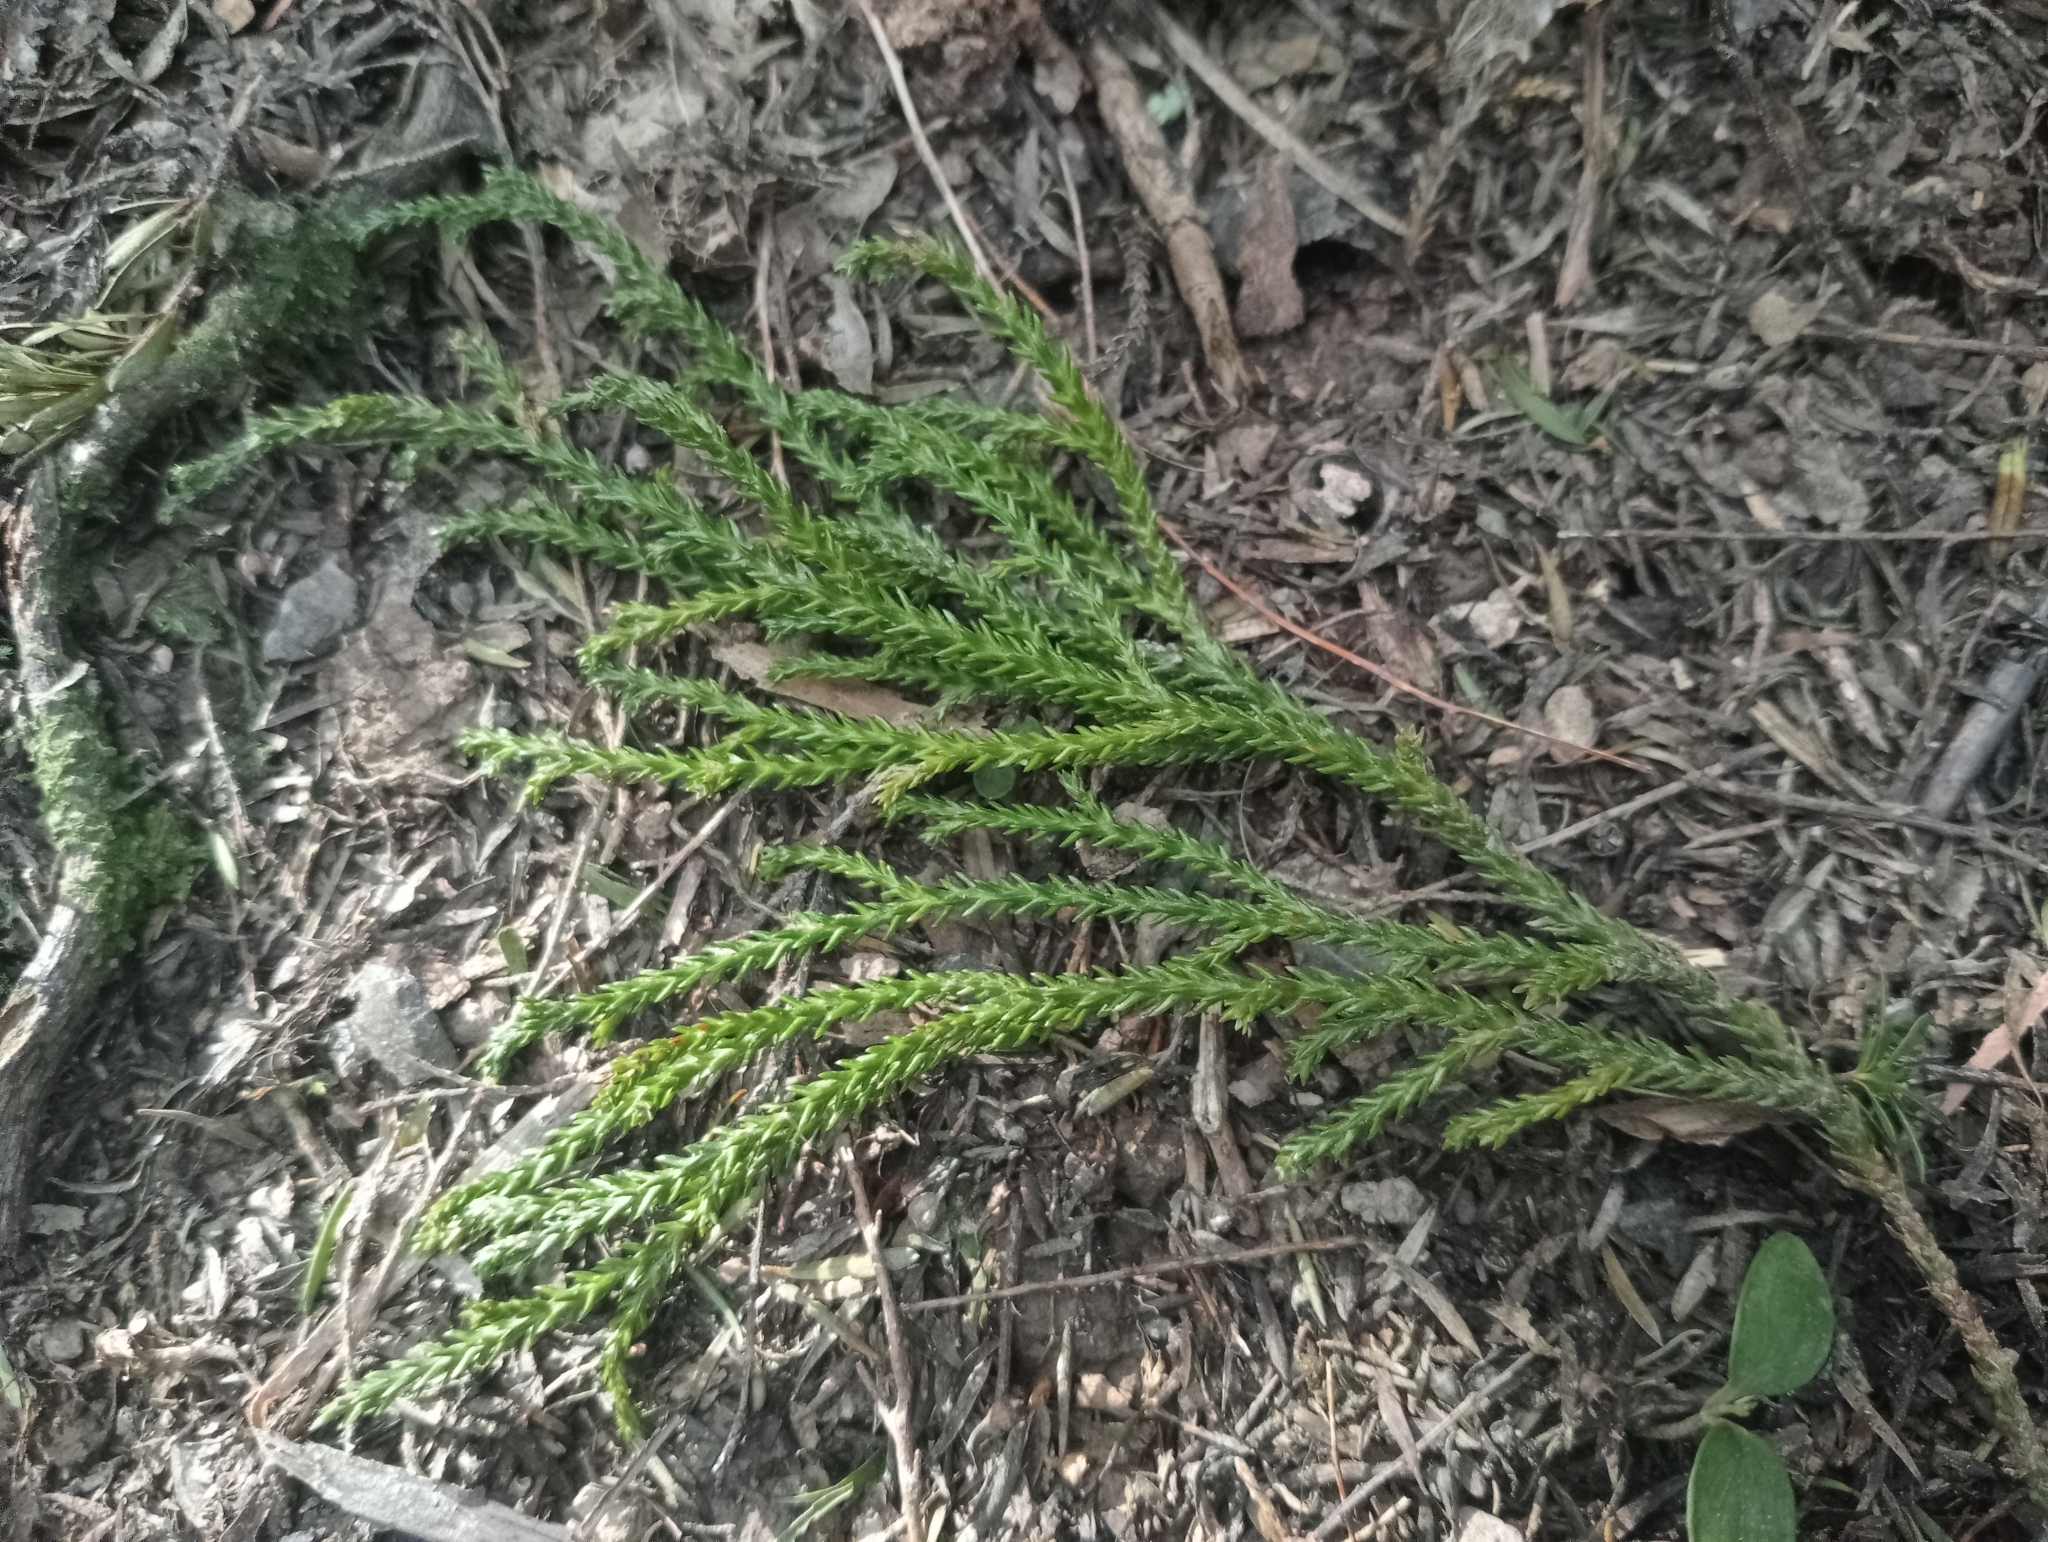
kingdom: Plantae
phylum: Tracheophyta
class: Pinopsida
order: Pinales
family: Podocarpaceae
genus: Dacrydium
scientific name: Dacrydium cupressinum
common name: Red pine
